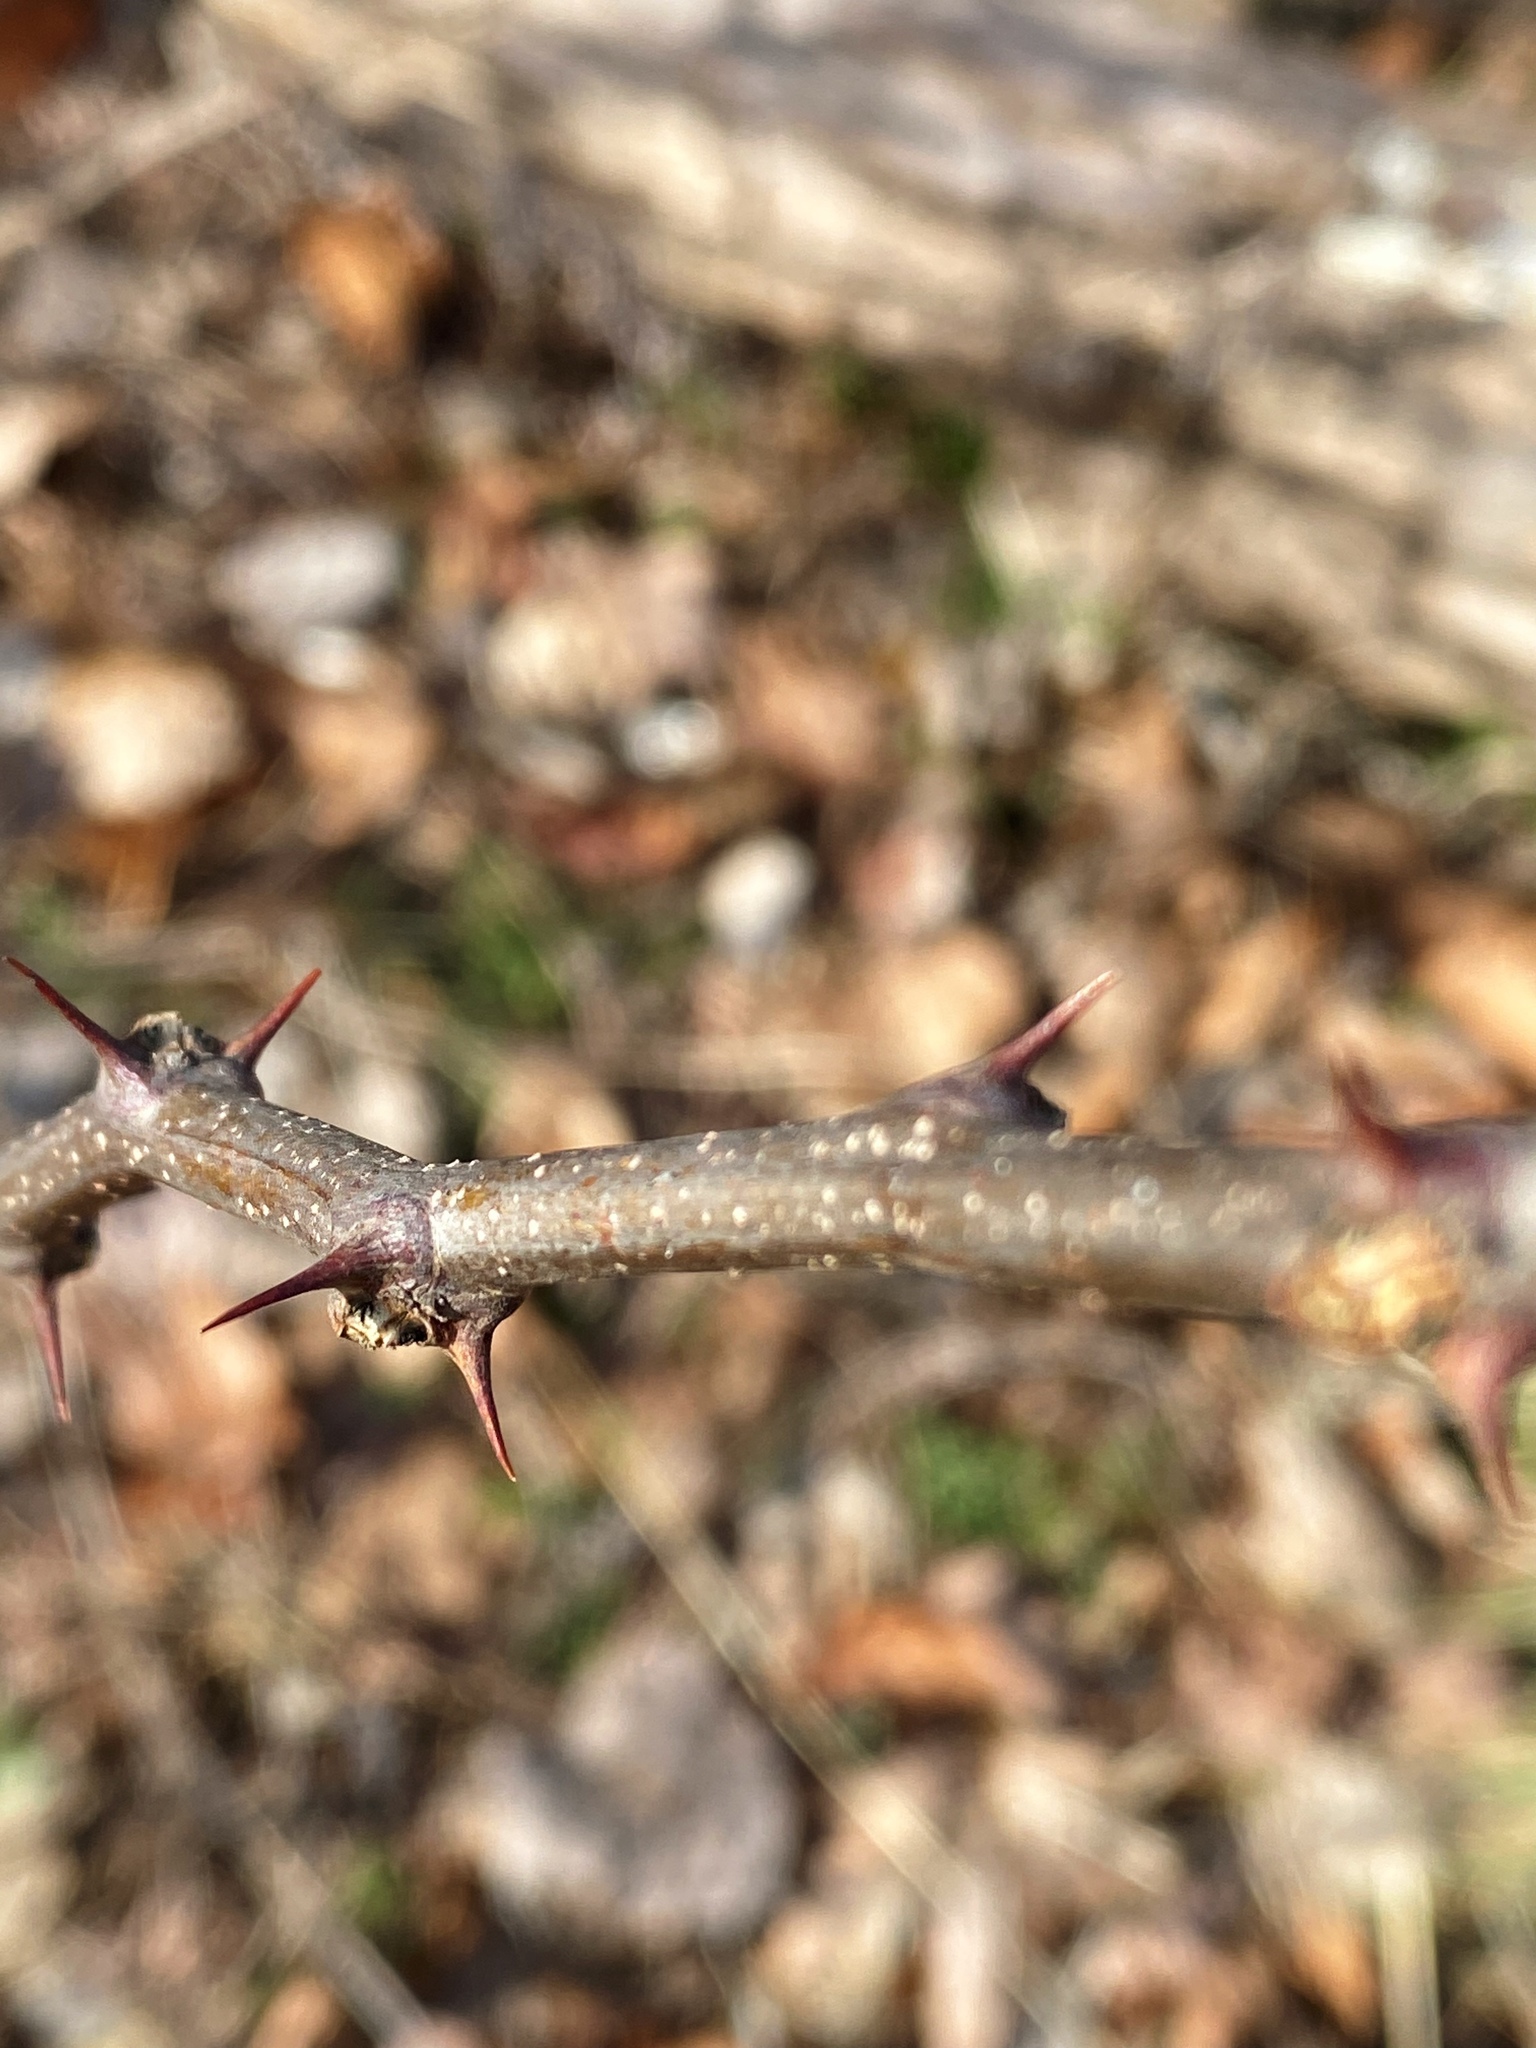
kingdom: Plantae
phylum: Tracheophyta
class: Magnoliopsida
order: Fabales
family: Fabaceae
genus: Robinia
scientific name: Robinia pseudoacacia
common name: Black locust
